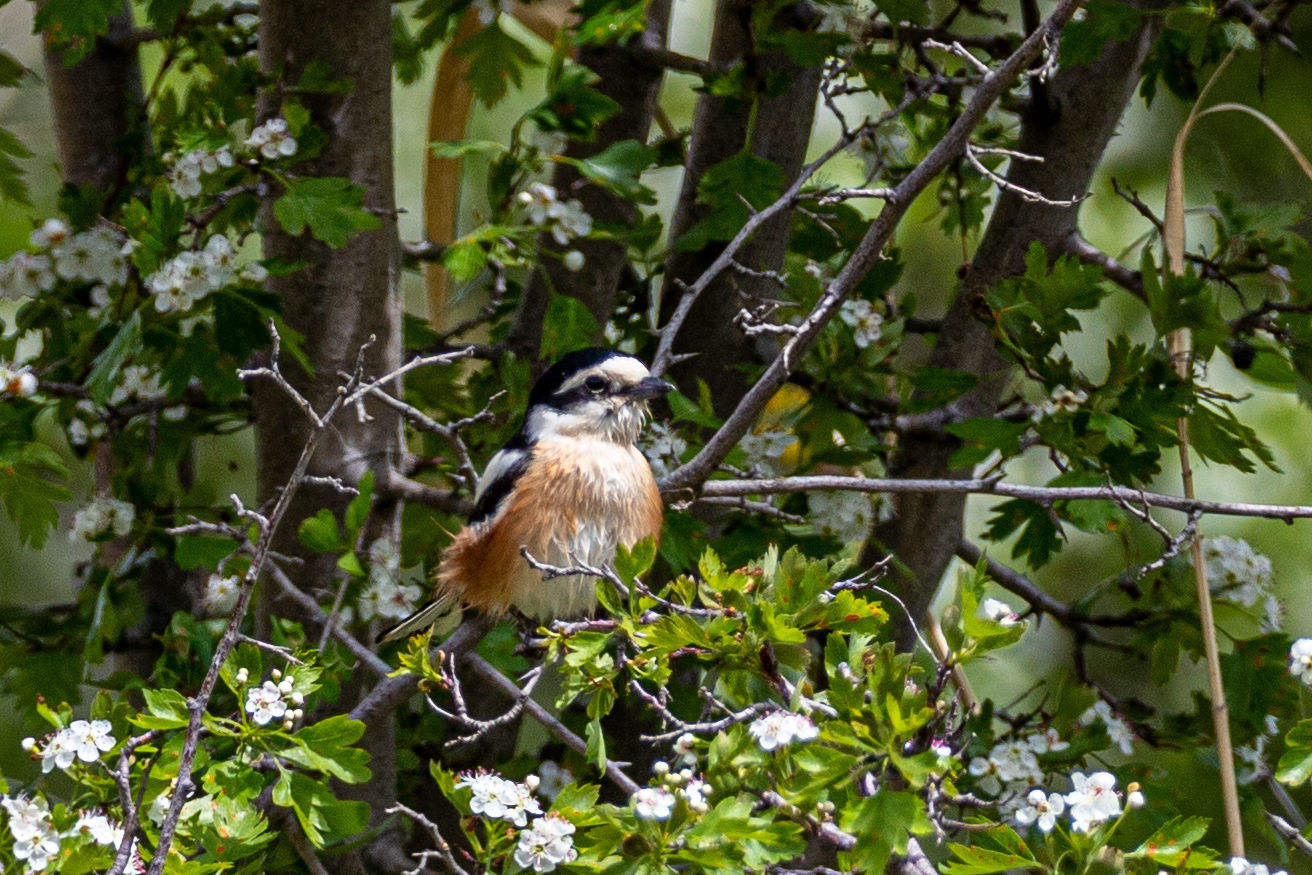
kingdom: Animalia
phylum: Chordata
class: Aves
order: Passeriformes
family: Laniidae
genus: Lanius
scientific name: Lanius nubicus
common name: Masked shrike
